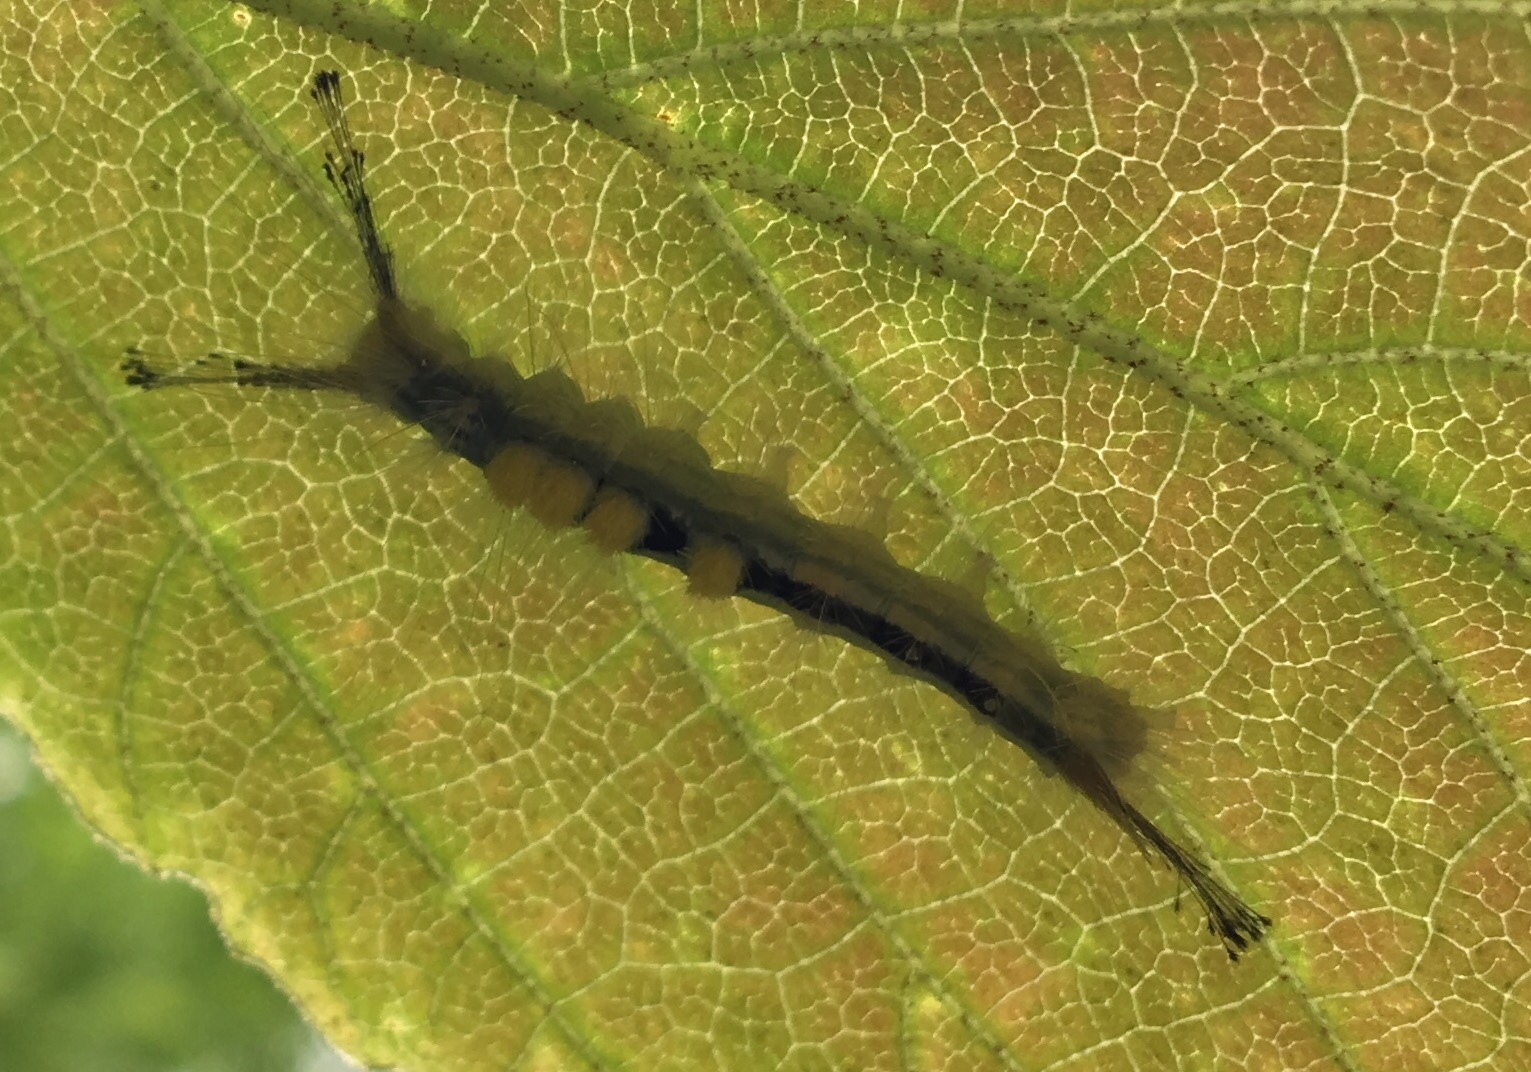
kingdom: Animalia
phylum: Arthropoda
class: Insecta
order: Lepidoptera
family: Erebidae
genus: Orgyia
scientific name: Orgyia definita
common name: Definite tussock moth
